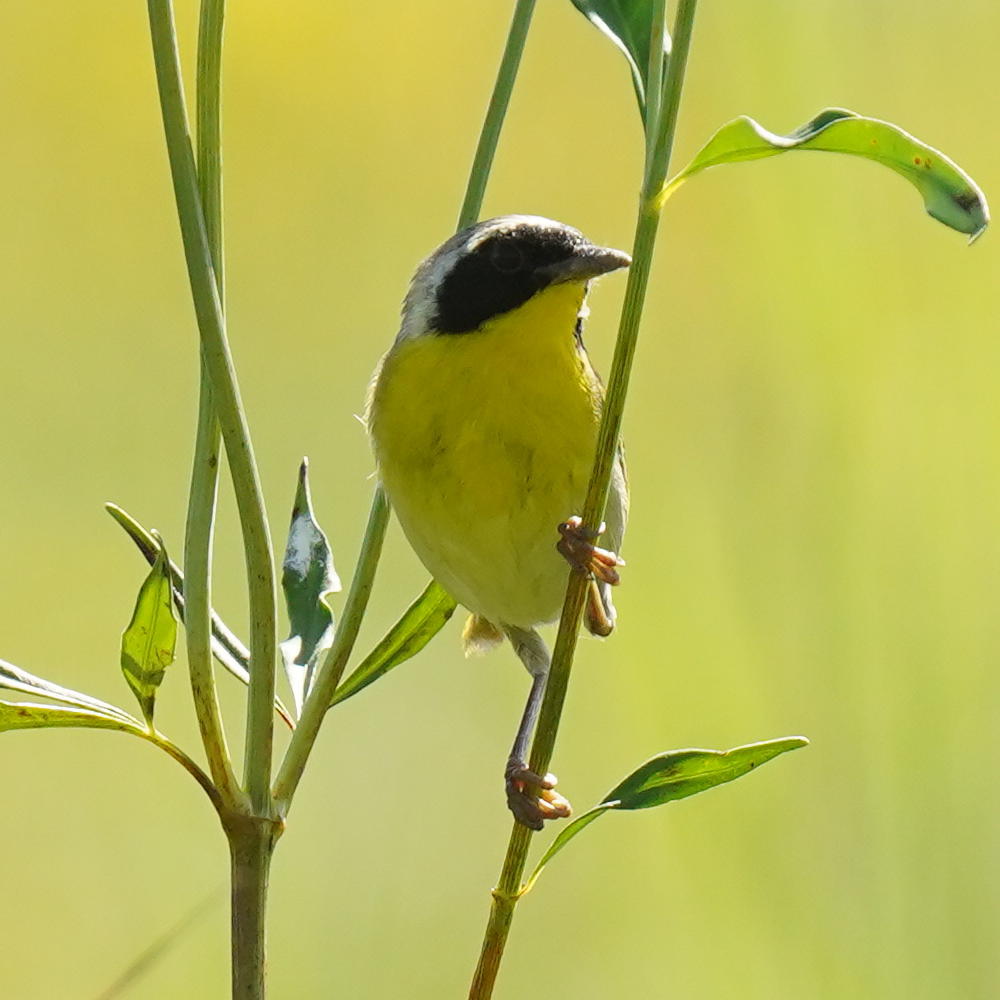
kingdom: Animalia
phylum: Chordata
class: Aves
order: Passeriformes
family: Parulidae
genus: Geothlypis
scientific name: Geothlypis trichas
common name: Common yellowthroat
